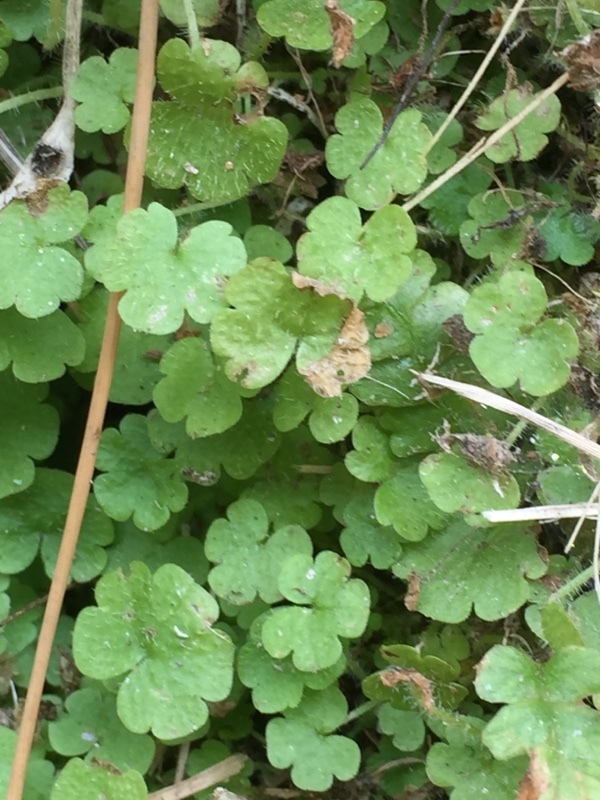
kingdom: Plantae
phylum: Tracheophyta
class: Magnoliopsida
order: Lamiales
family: Plantaginaceae
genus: Sibthorpia
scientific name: Sibthorpia europaea
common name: Cornish moneywort
